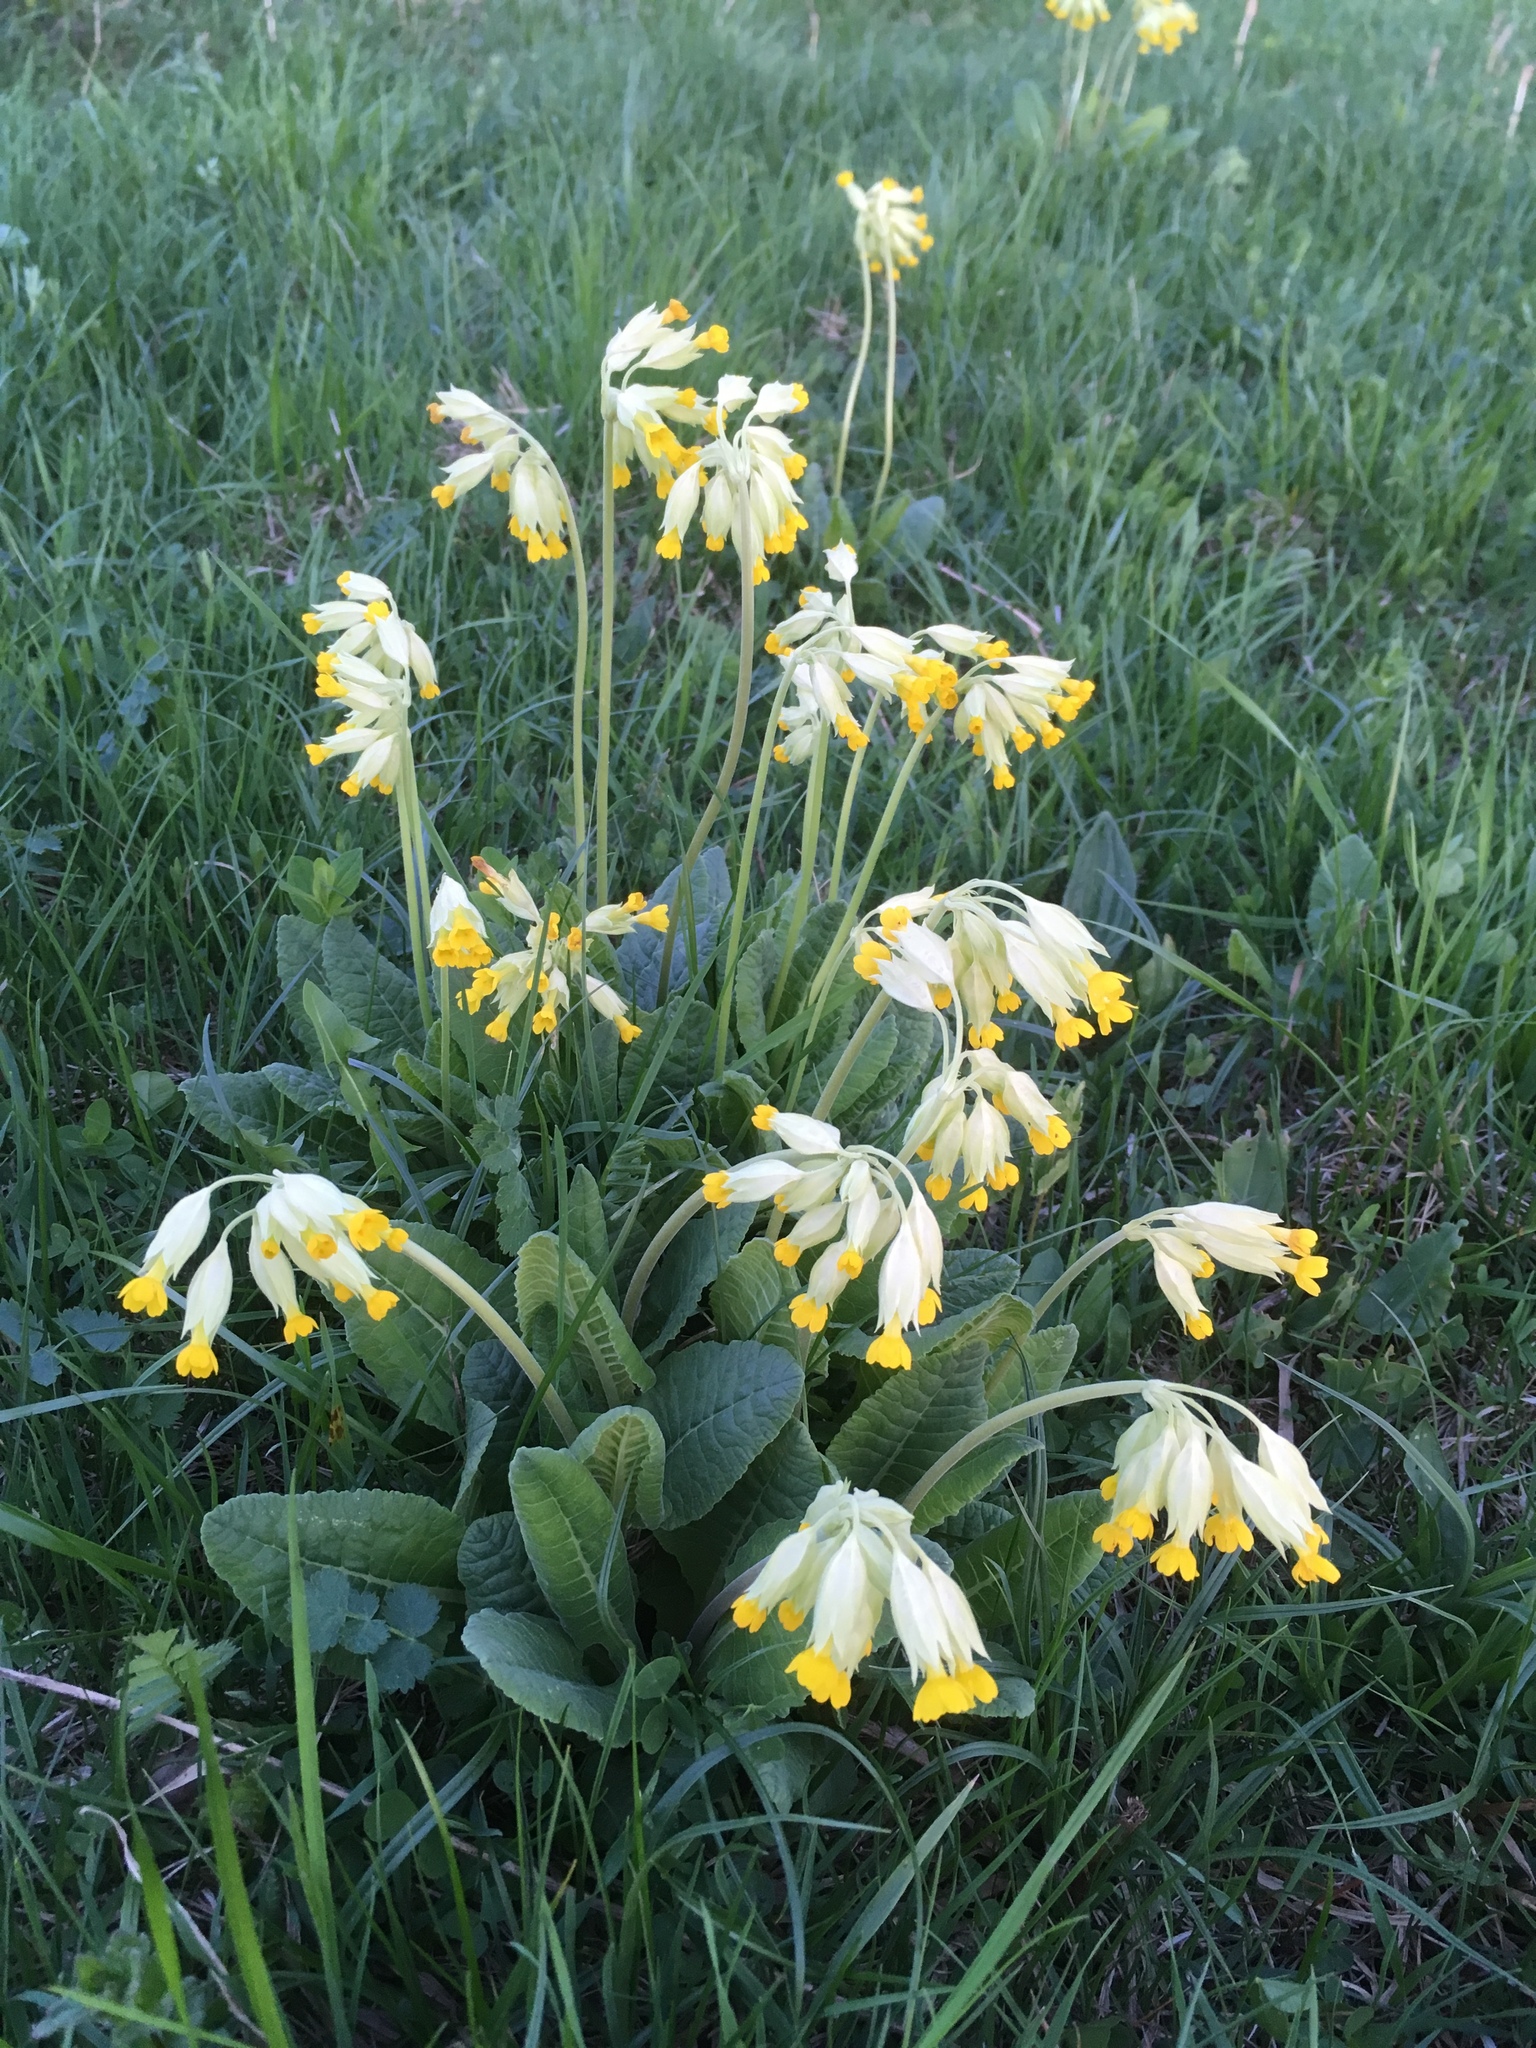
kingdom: Plantae
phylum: Tracheophyta
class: Magnoliopsida
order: Ericales
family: Primulaceae
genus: Primula
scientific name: Primula veris
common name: Cowslip
